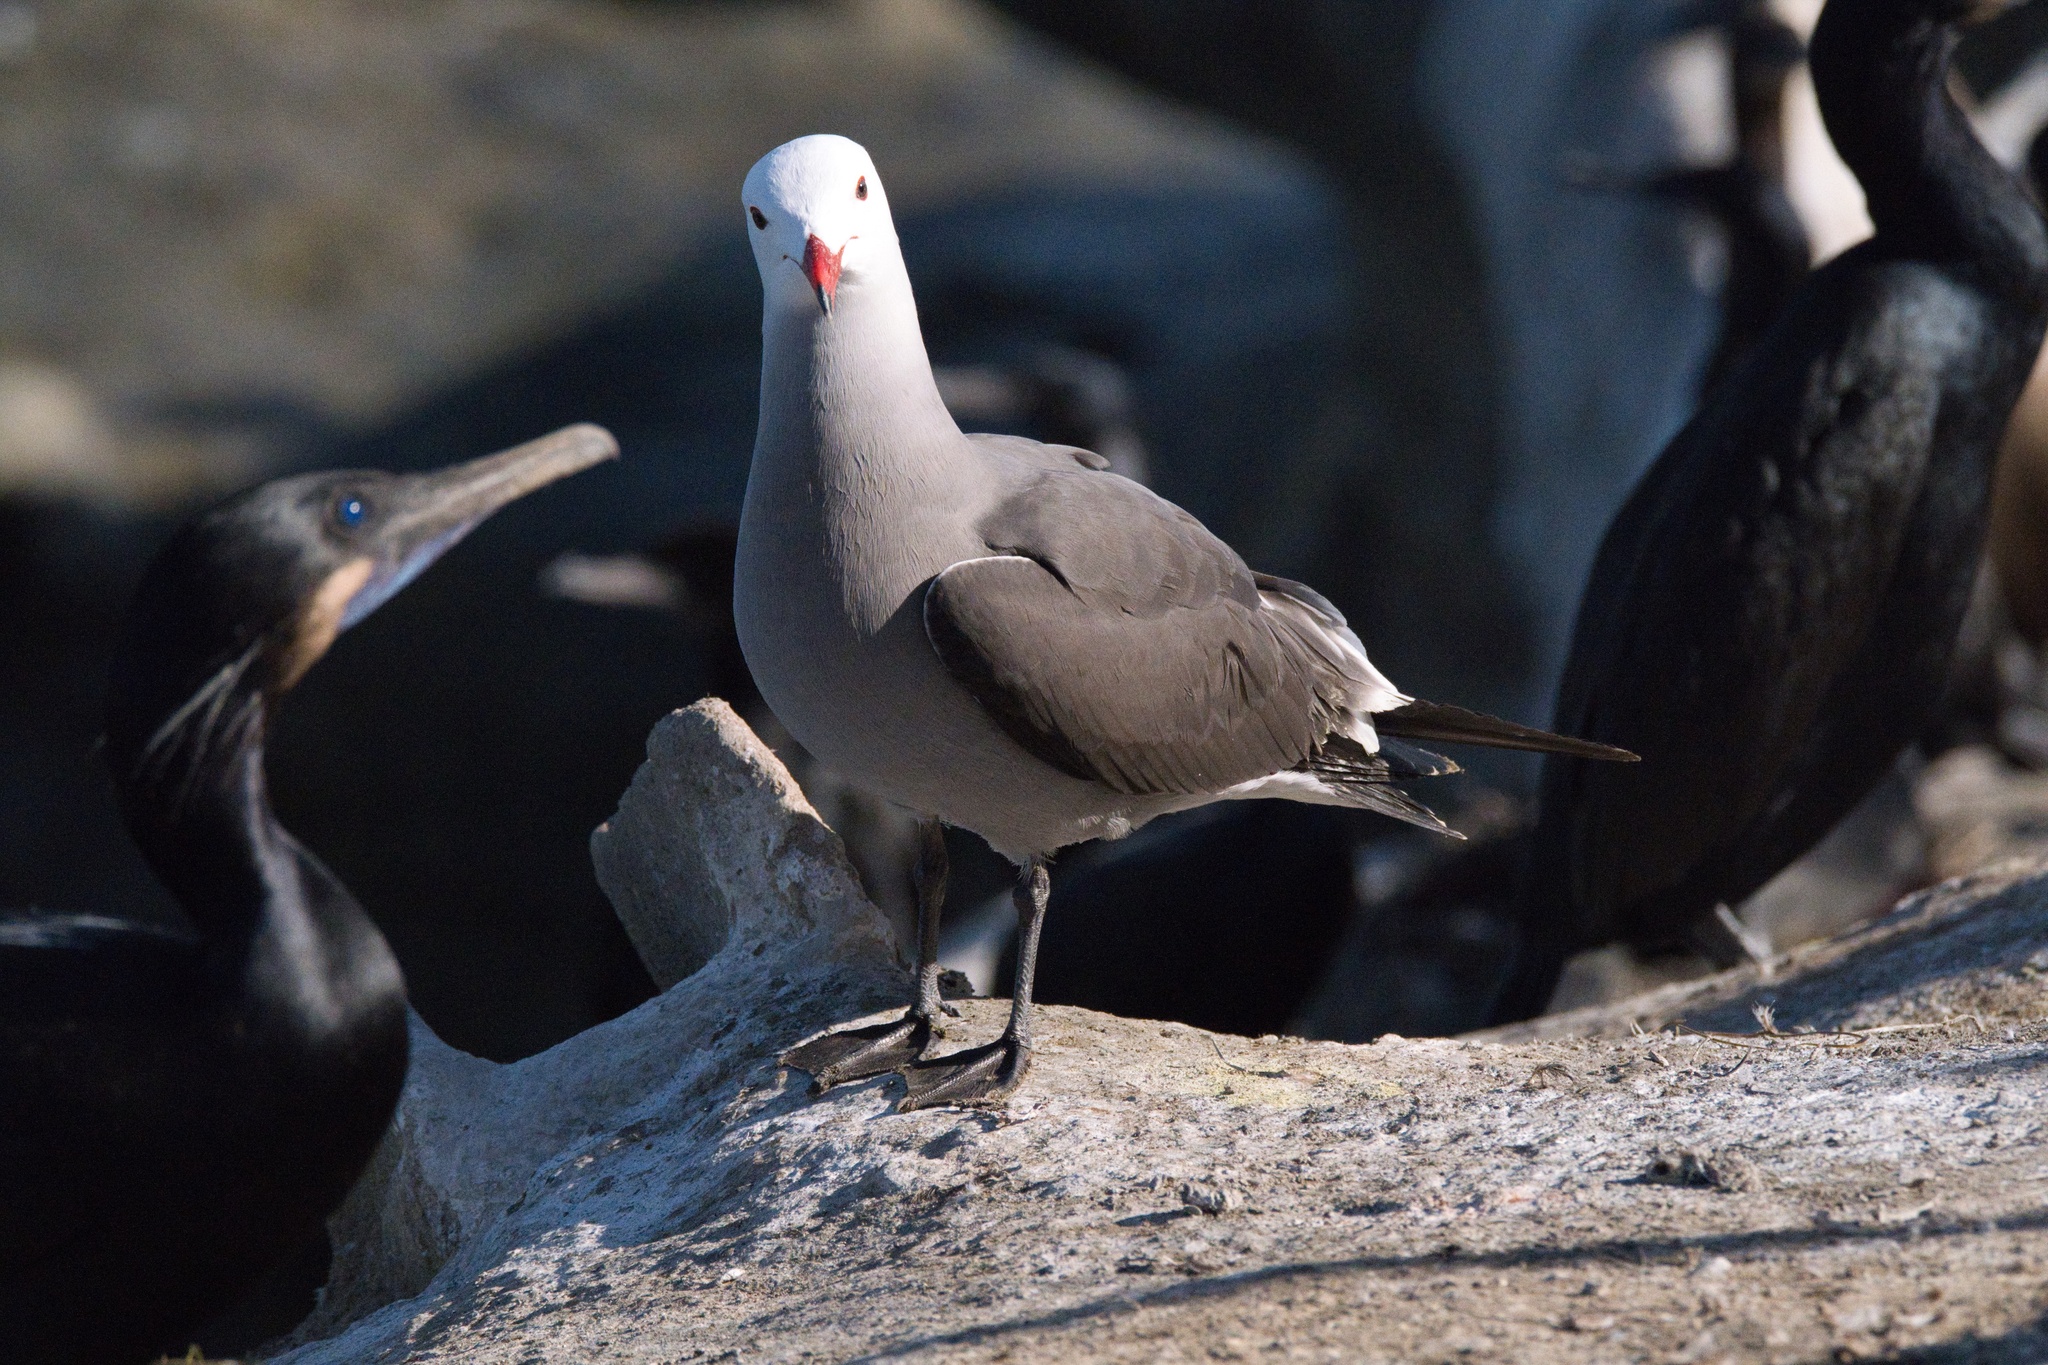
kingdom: Animalia
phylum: Chordata
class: Aves
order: Charadriiformes
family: Laridae
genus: Larus
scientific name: Larus heermanni
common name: Heermann's gull
